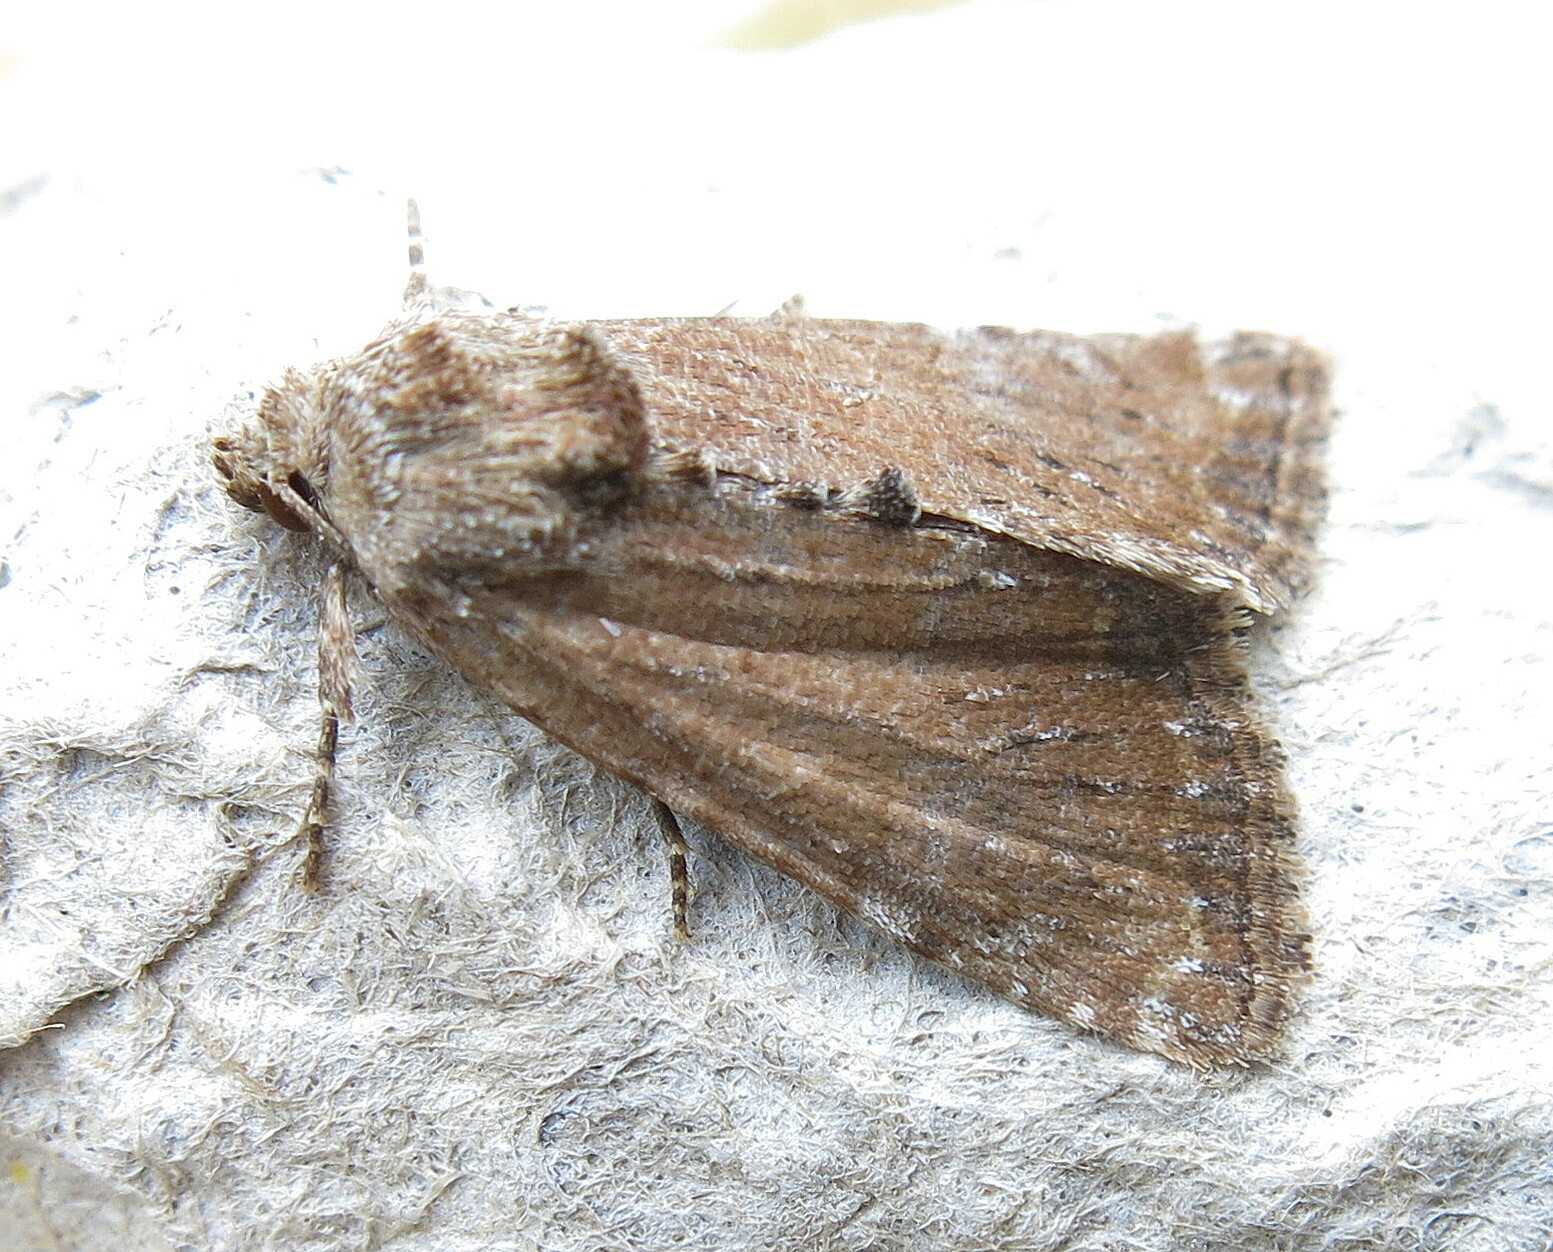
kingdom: Animalia
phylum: Arthropoda
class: Insecta
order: Lepidoptera
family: Noctuidae
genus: Mesoligia
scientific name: Mesoligia furuncula
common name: Cloaked minor
